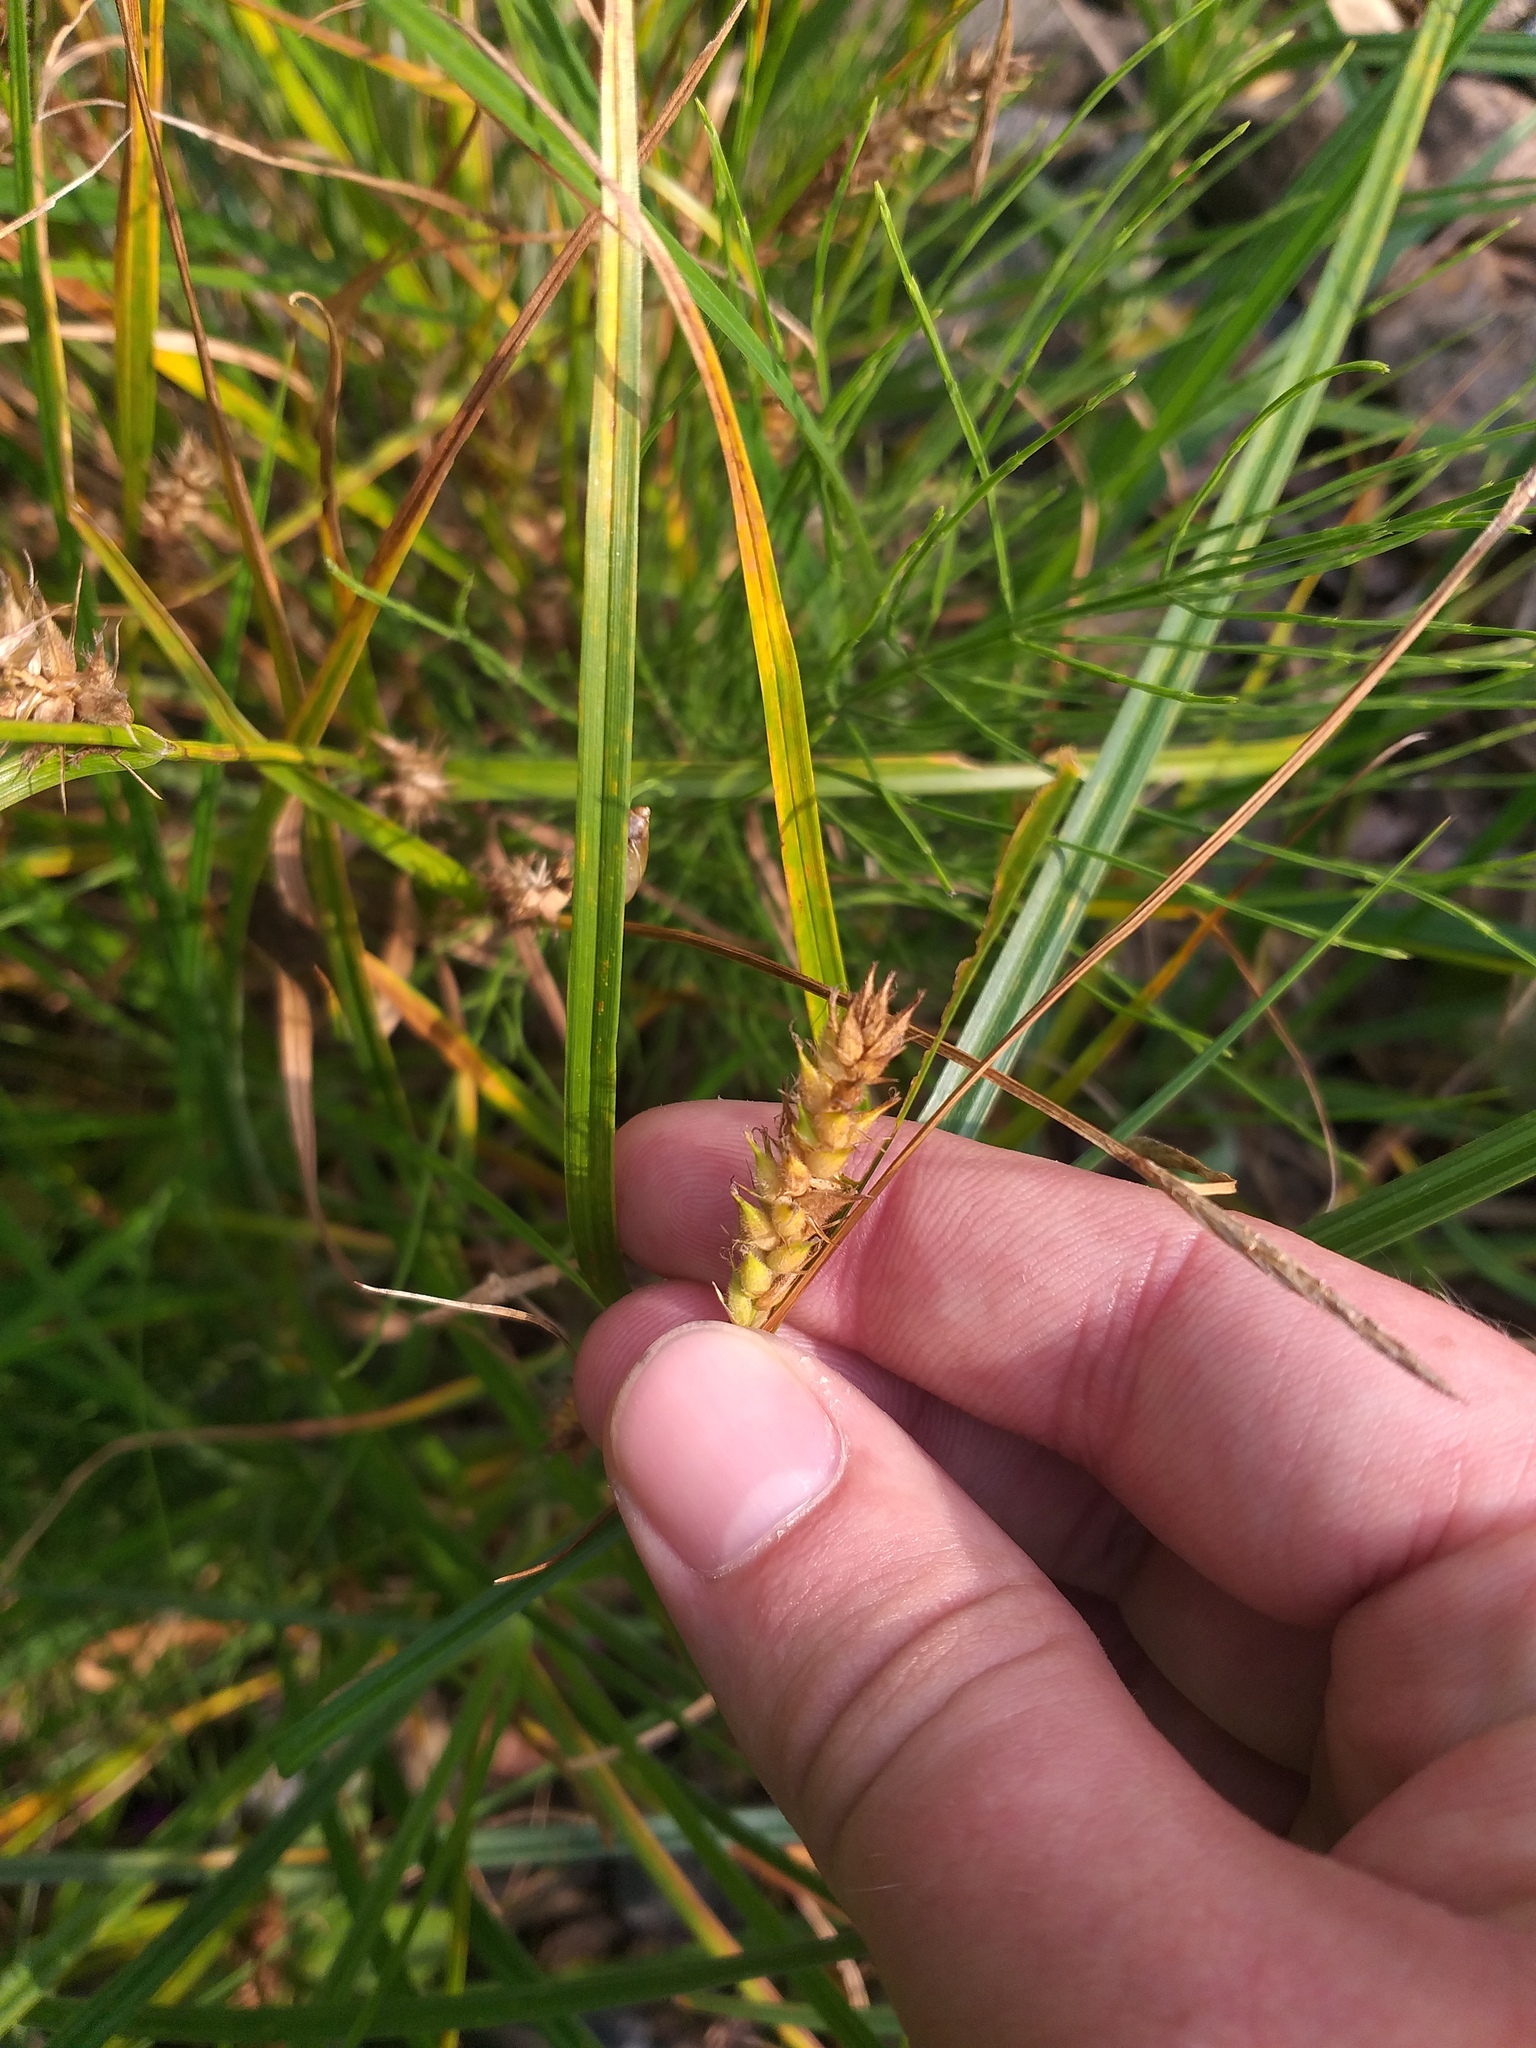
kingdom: Plantae
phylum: Tracheophyta
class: Liliopsida
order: Poales
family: Cyperaceae
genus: Carex
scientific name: Carex hirta
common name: Hairy sedge
